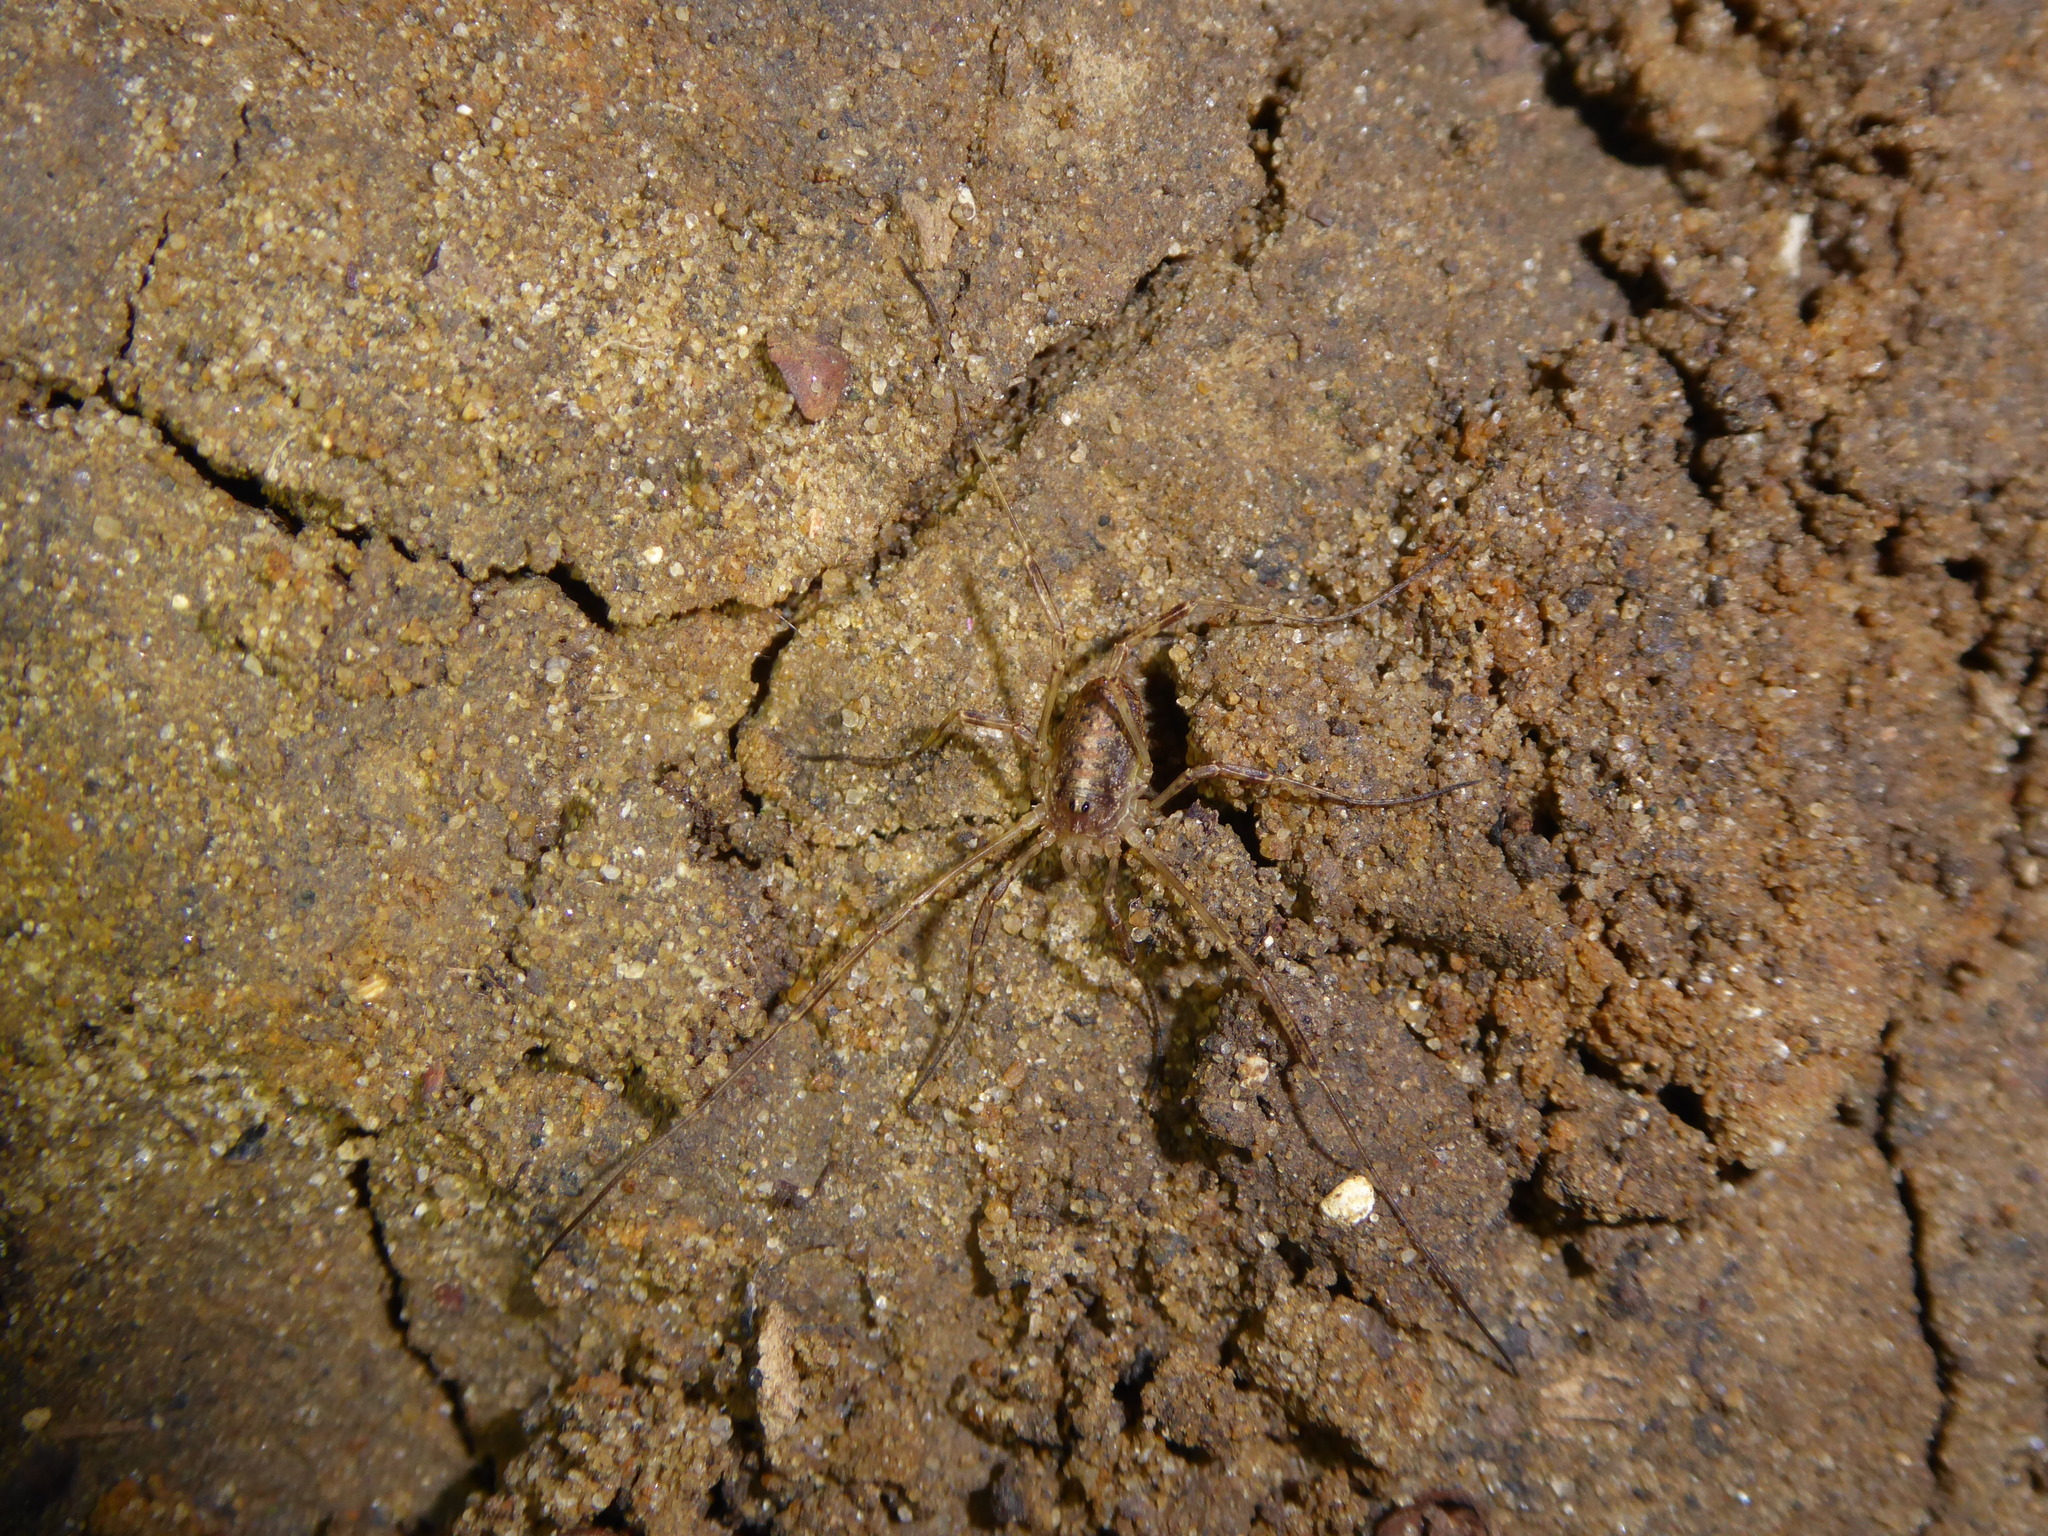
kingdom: Animalia
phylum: Arthropoda
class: Arachnida
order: Opiliones
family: Phalangiidae
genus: Paroligolophus
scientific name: Paroligolophus agrestis
